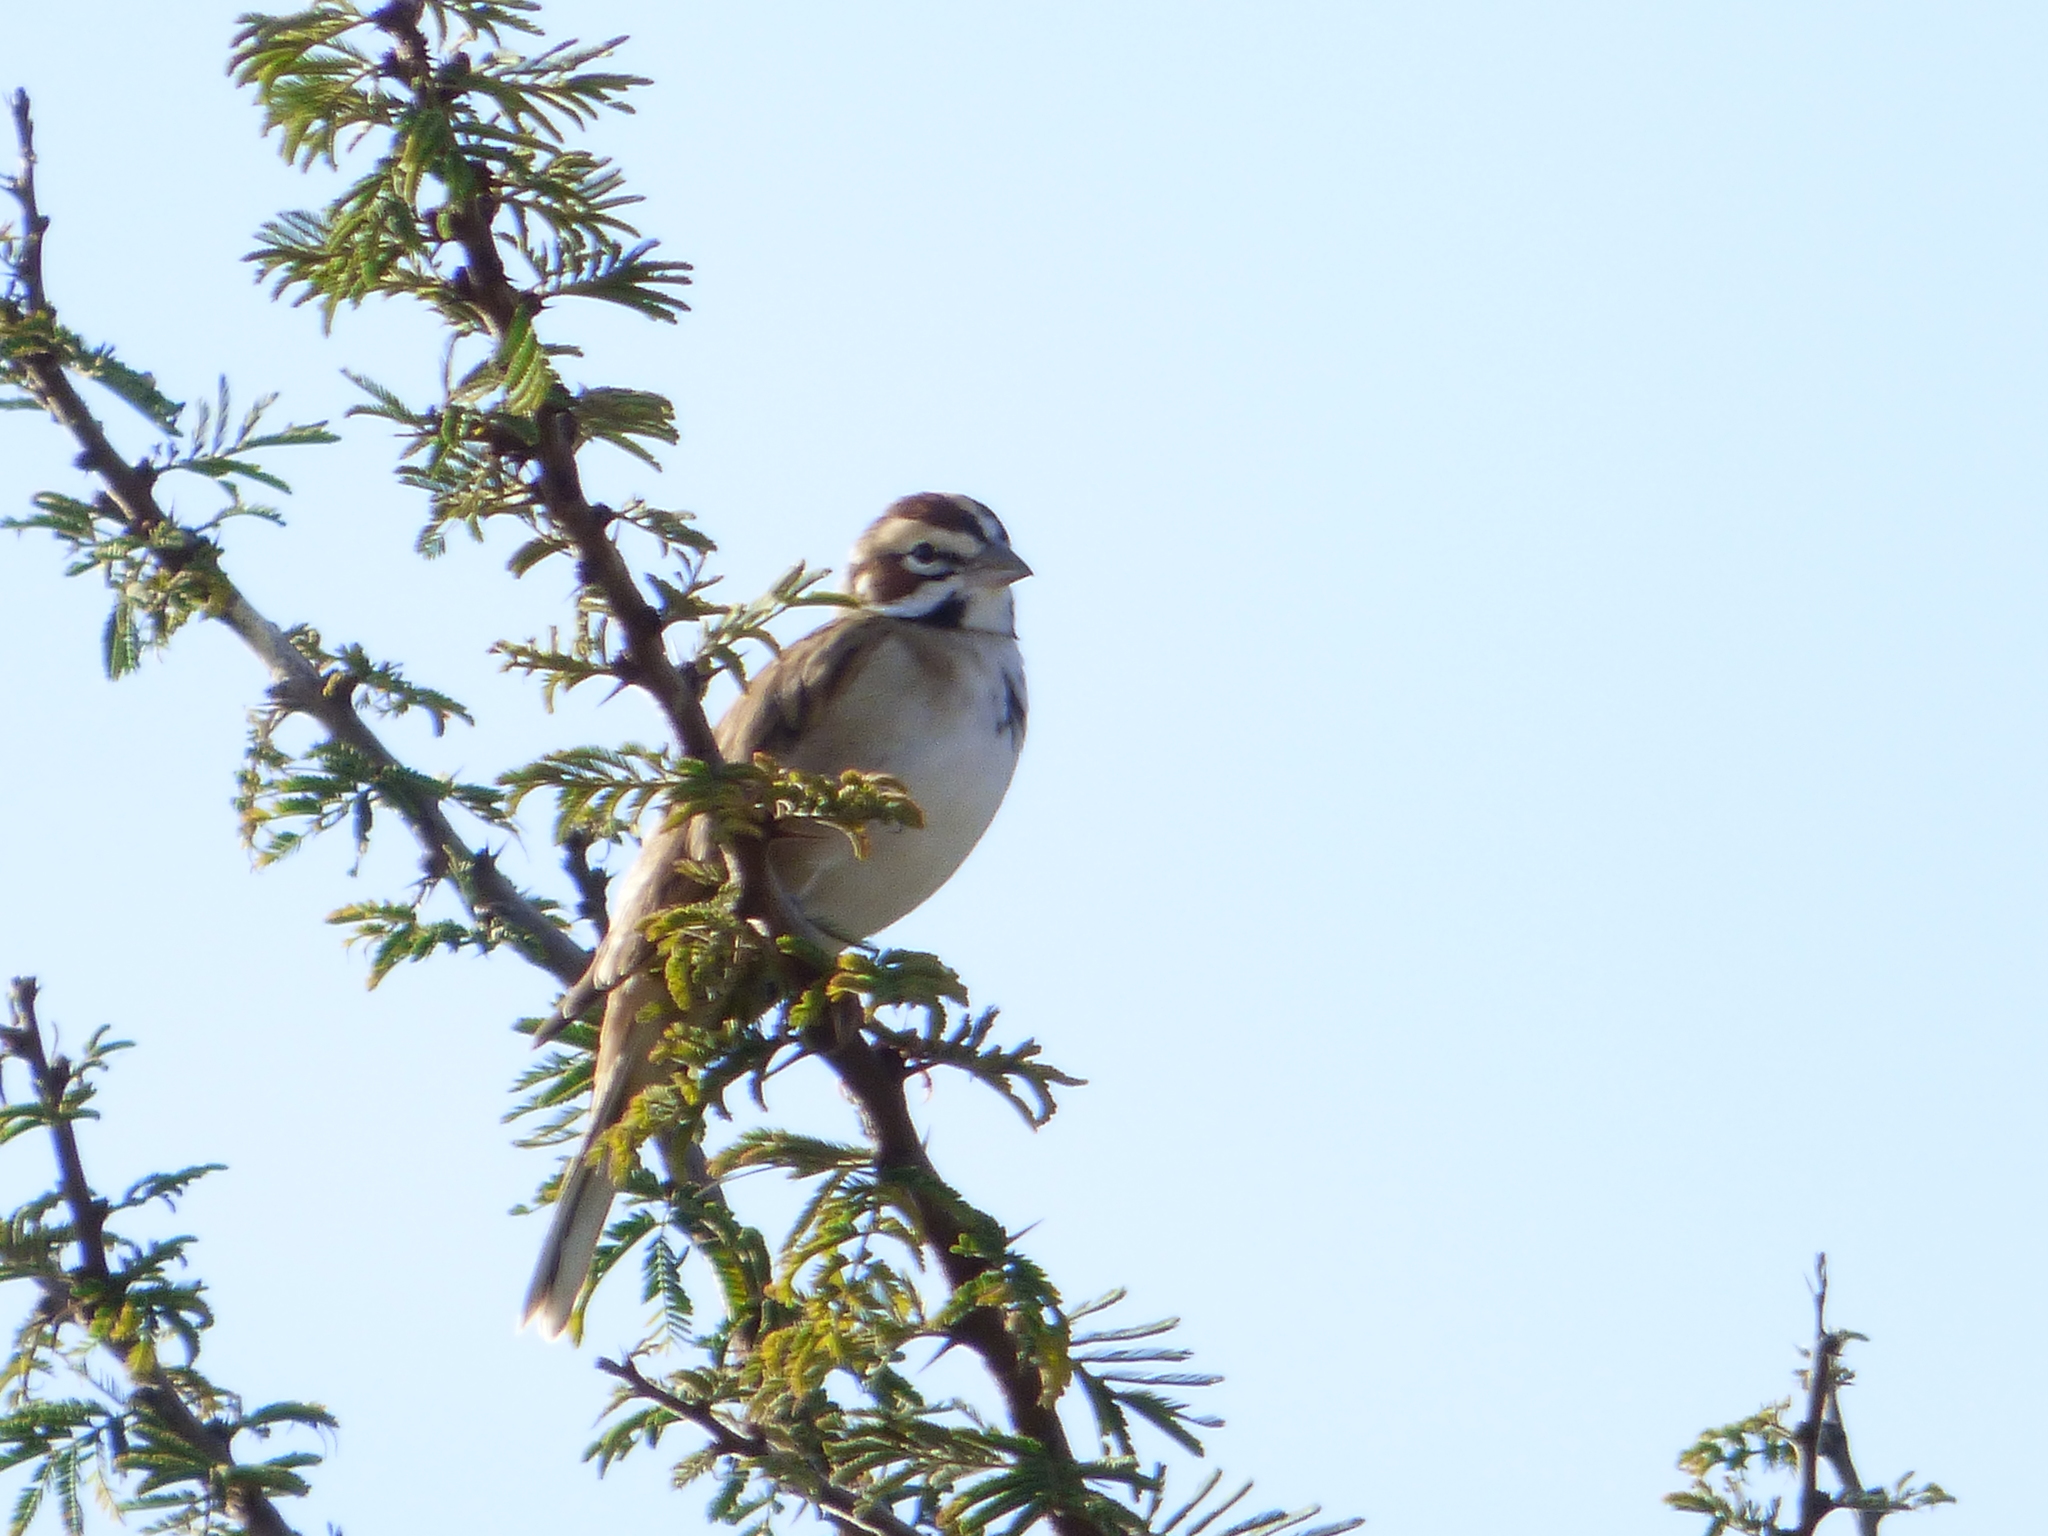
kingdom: Animalia
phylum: Chordata
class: Aves
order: Passeriformes
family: Passerellidae
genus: Chondestes
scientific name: Chondestes grammacus
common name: Lark sparrow
